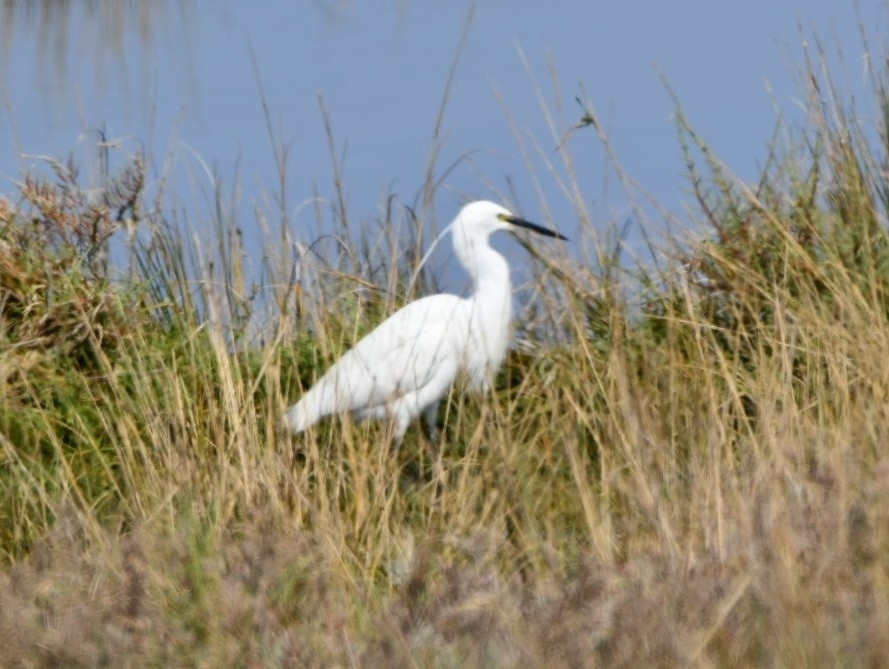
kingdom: Animalia
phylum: Chordata
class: Aves
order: Pelecaniformes
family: Ardeidae
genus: Egretta
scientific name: Egretta garzetta
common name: Little egret
